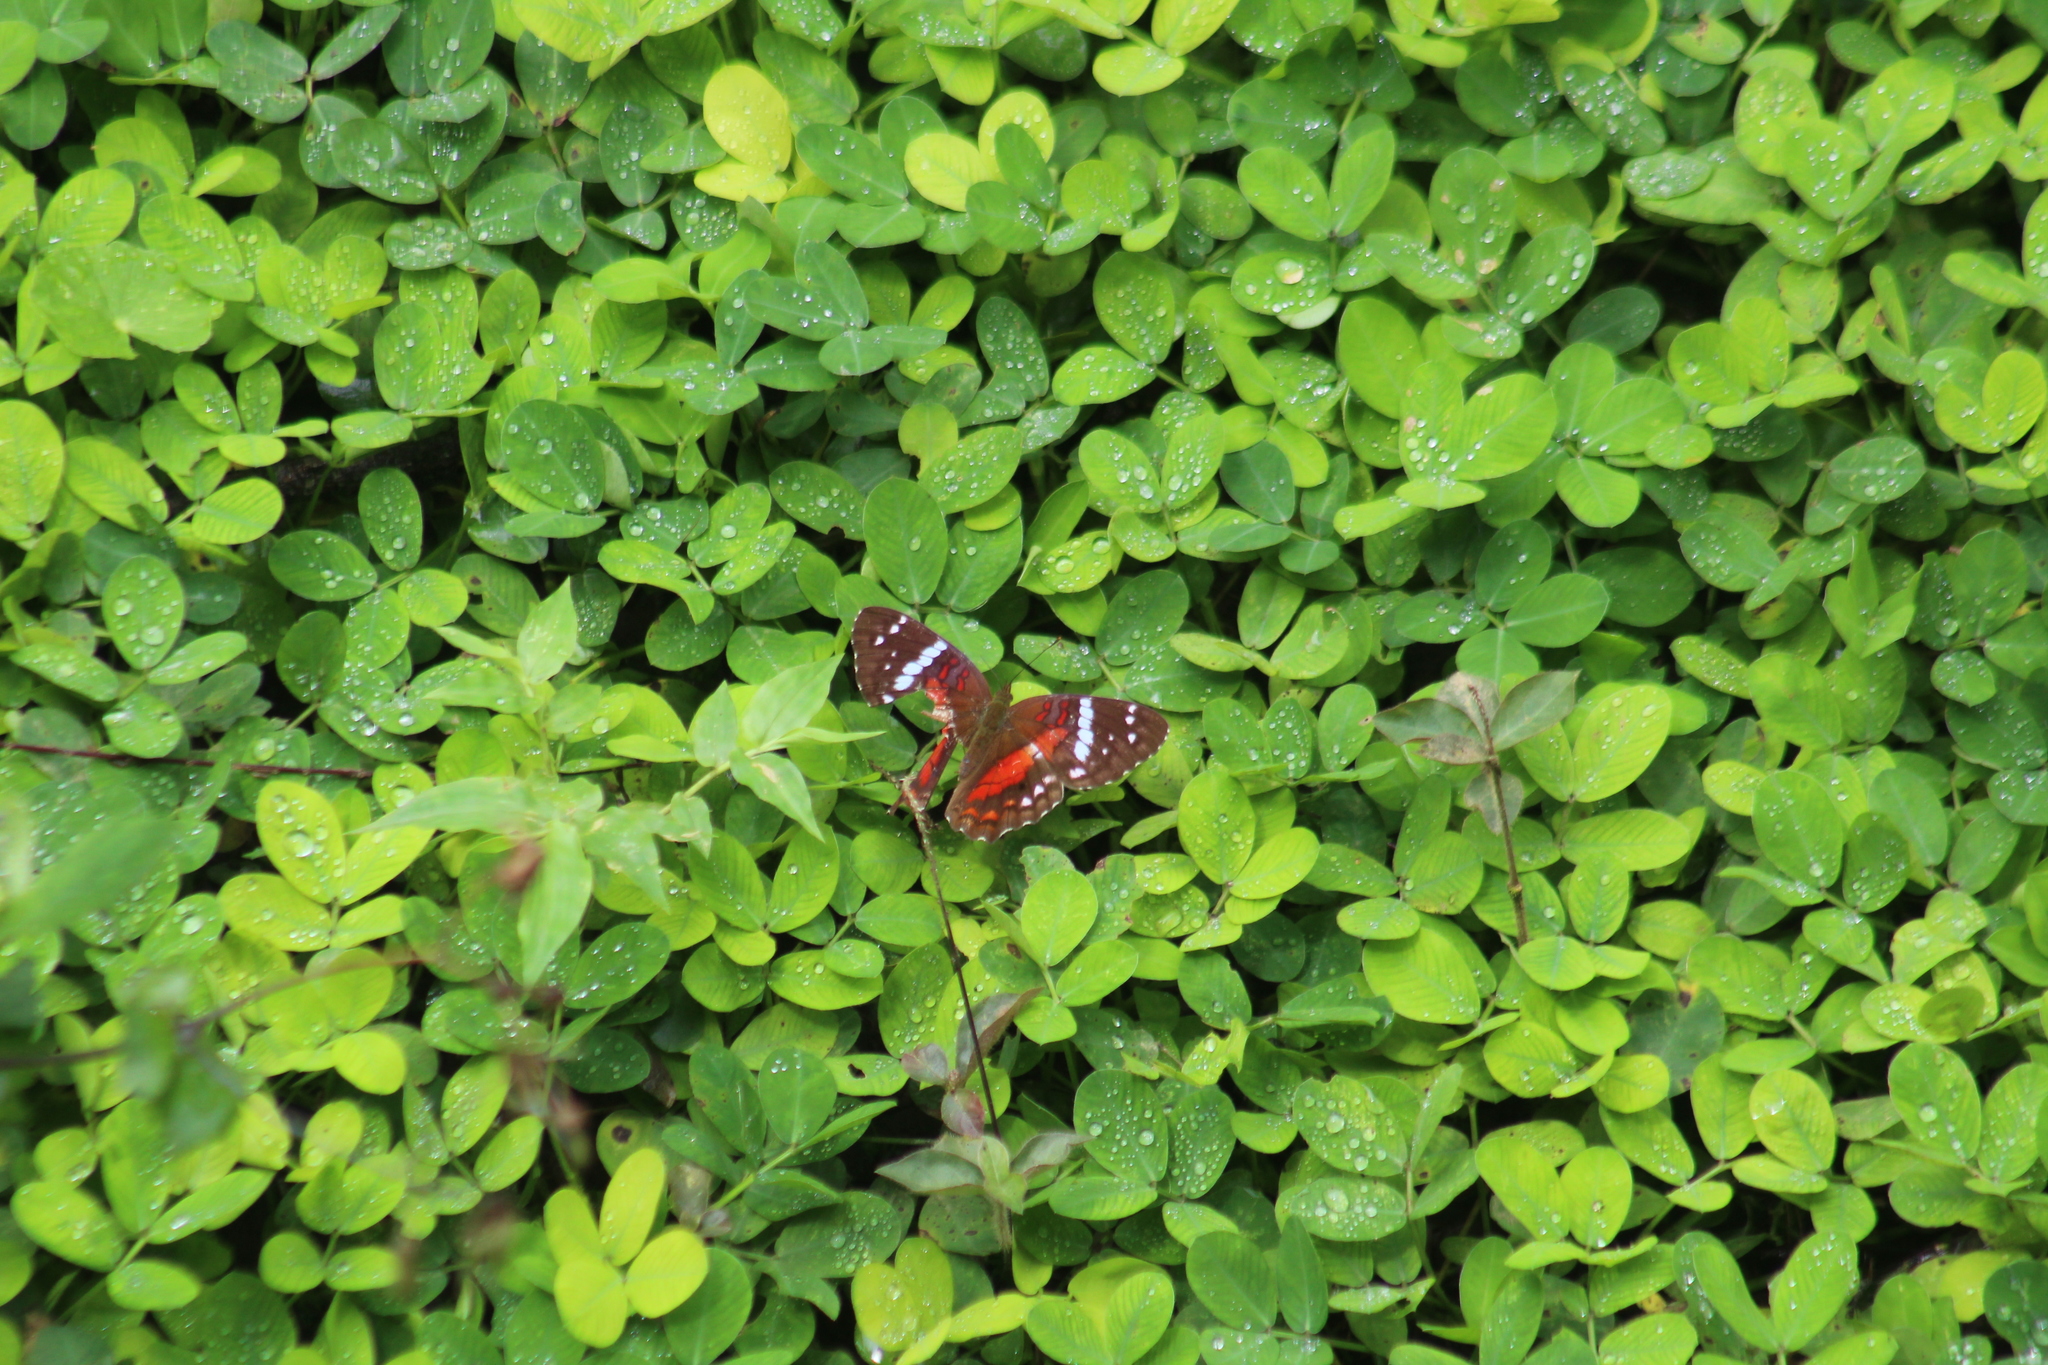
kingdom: Animalia
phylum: Arthropoda
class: Insecta
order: Lepidoptera
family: Nymphalidae
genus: Anartia
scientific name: Anartia amathea
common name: Red peacock
